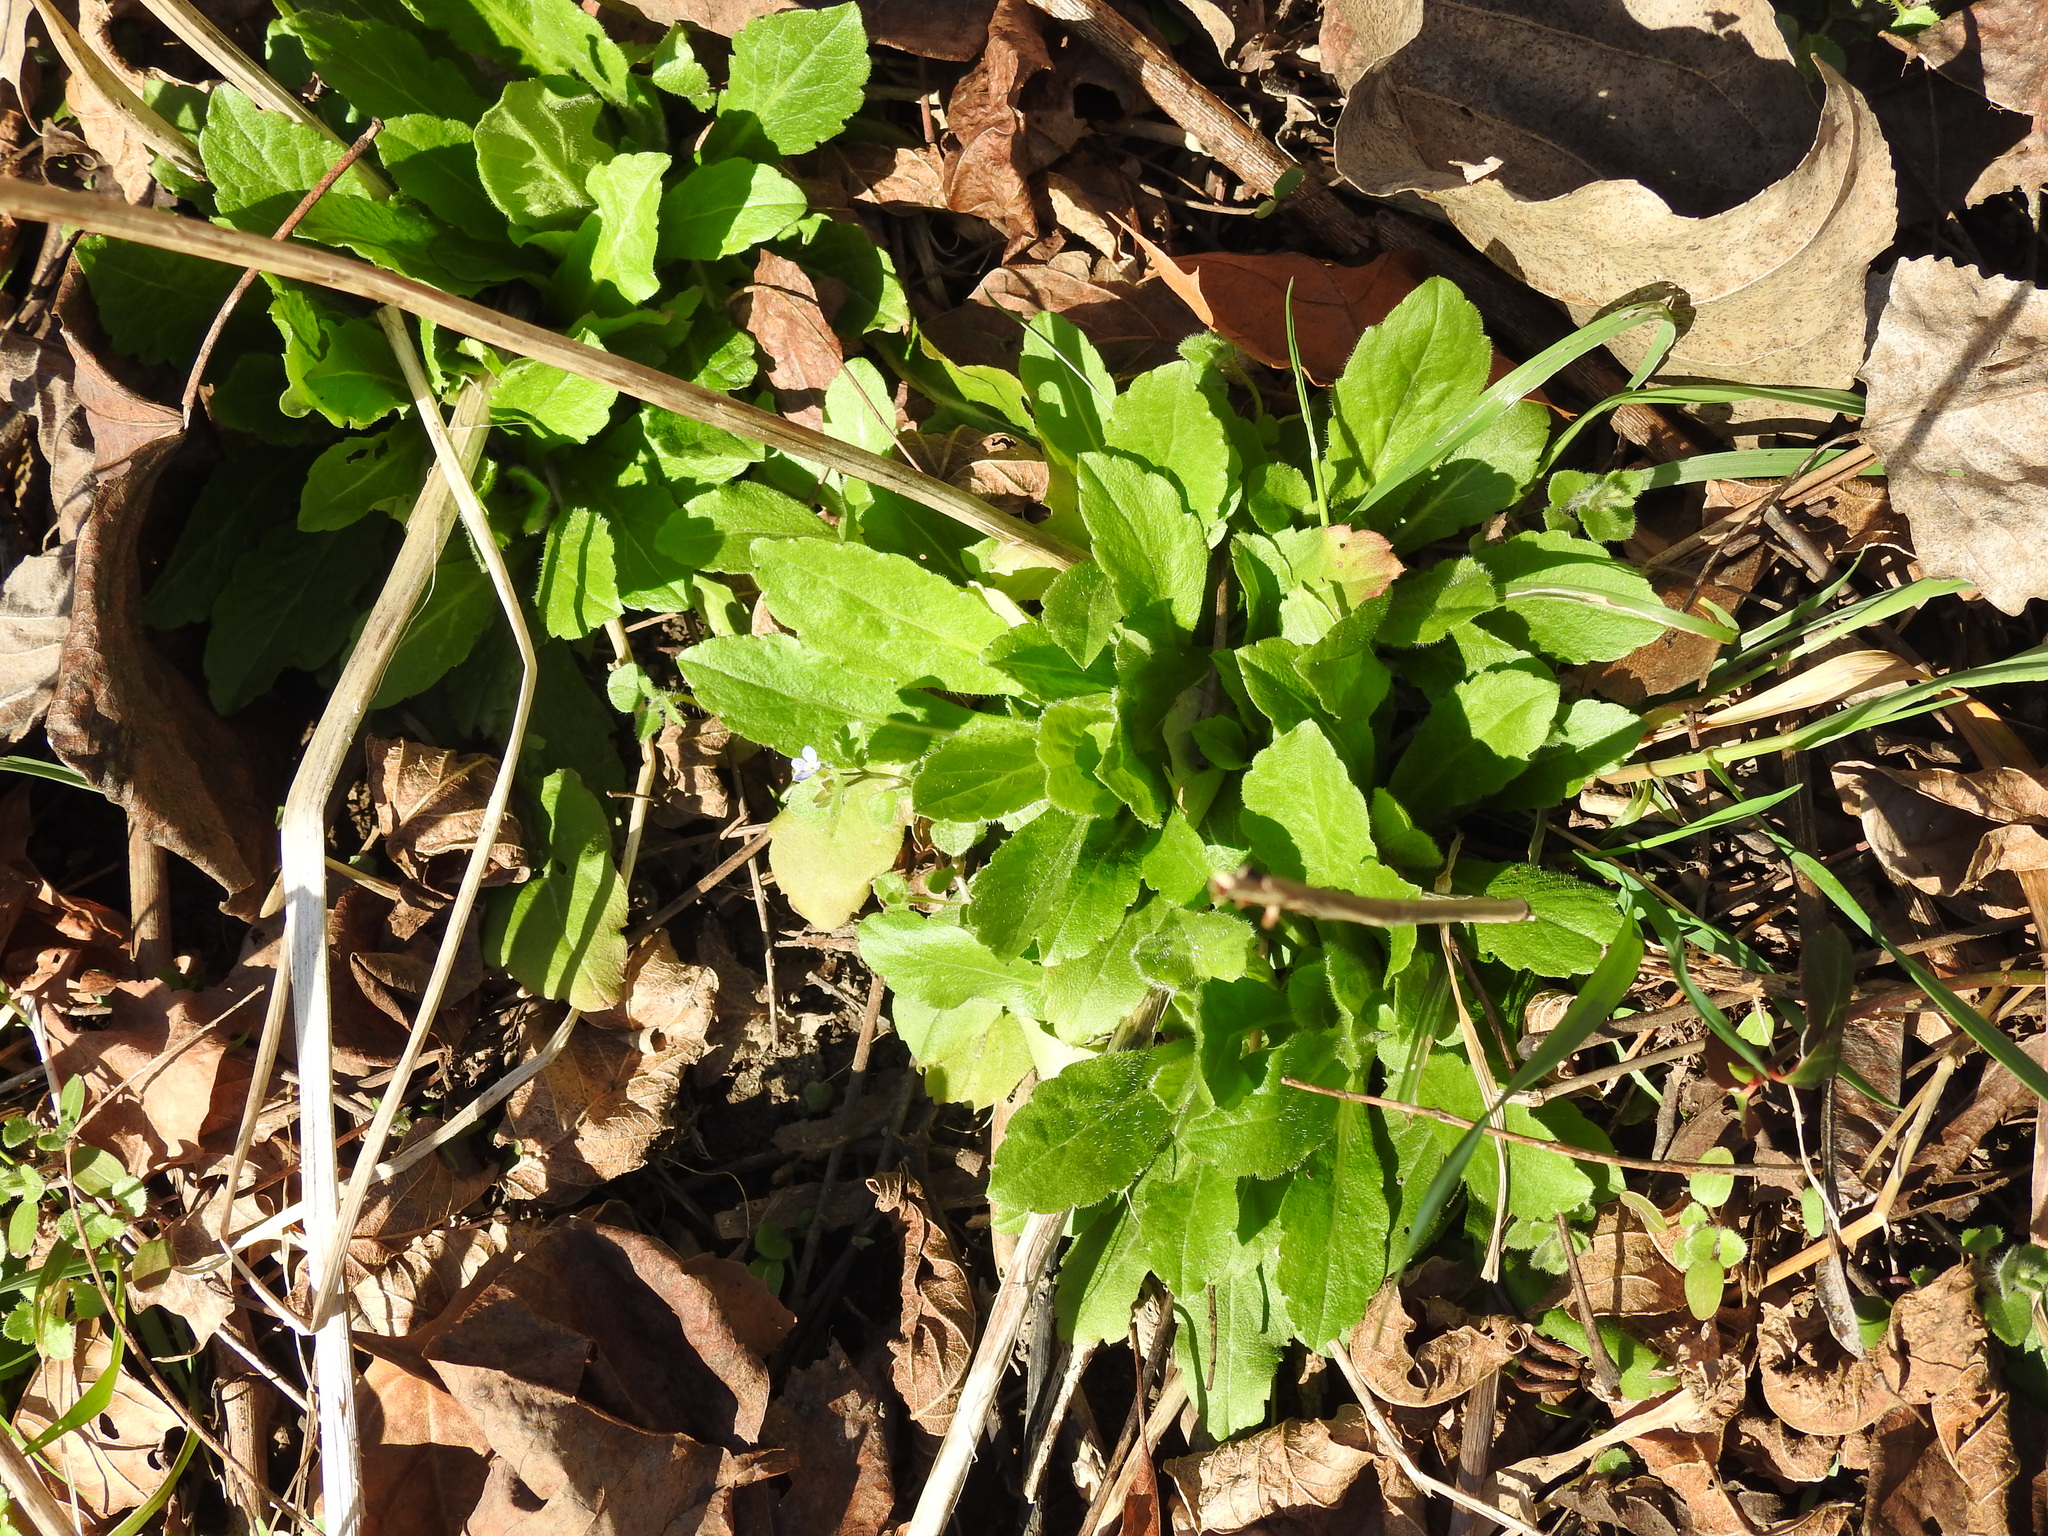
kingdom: Plantae
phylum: Tracheophyta
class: Magnoliopsida
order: Asterales
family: Asteraceae
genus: Erigeron
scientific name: Erigeron philadelphicus
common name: Robin's-plantain
